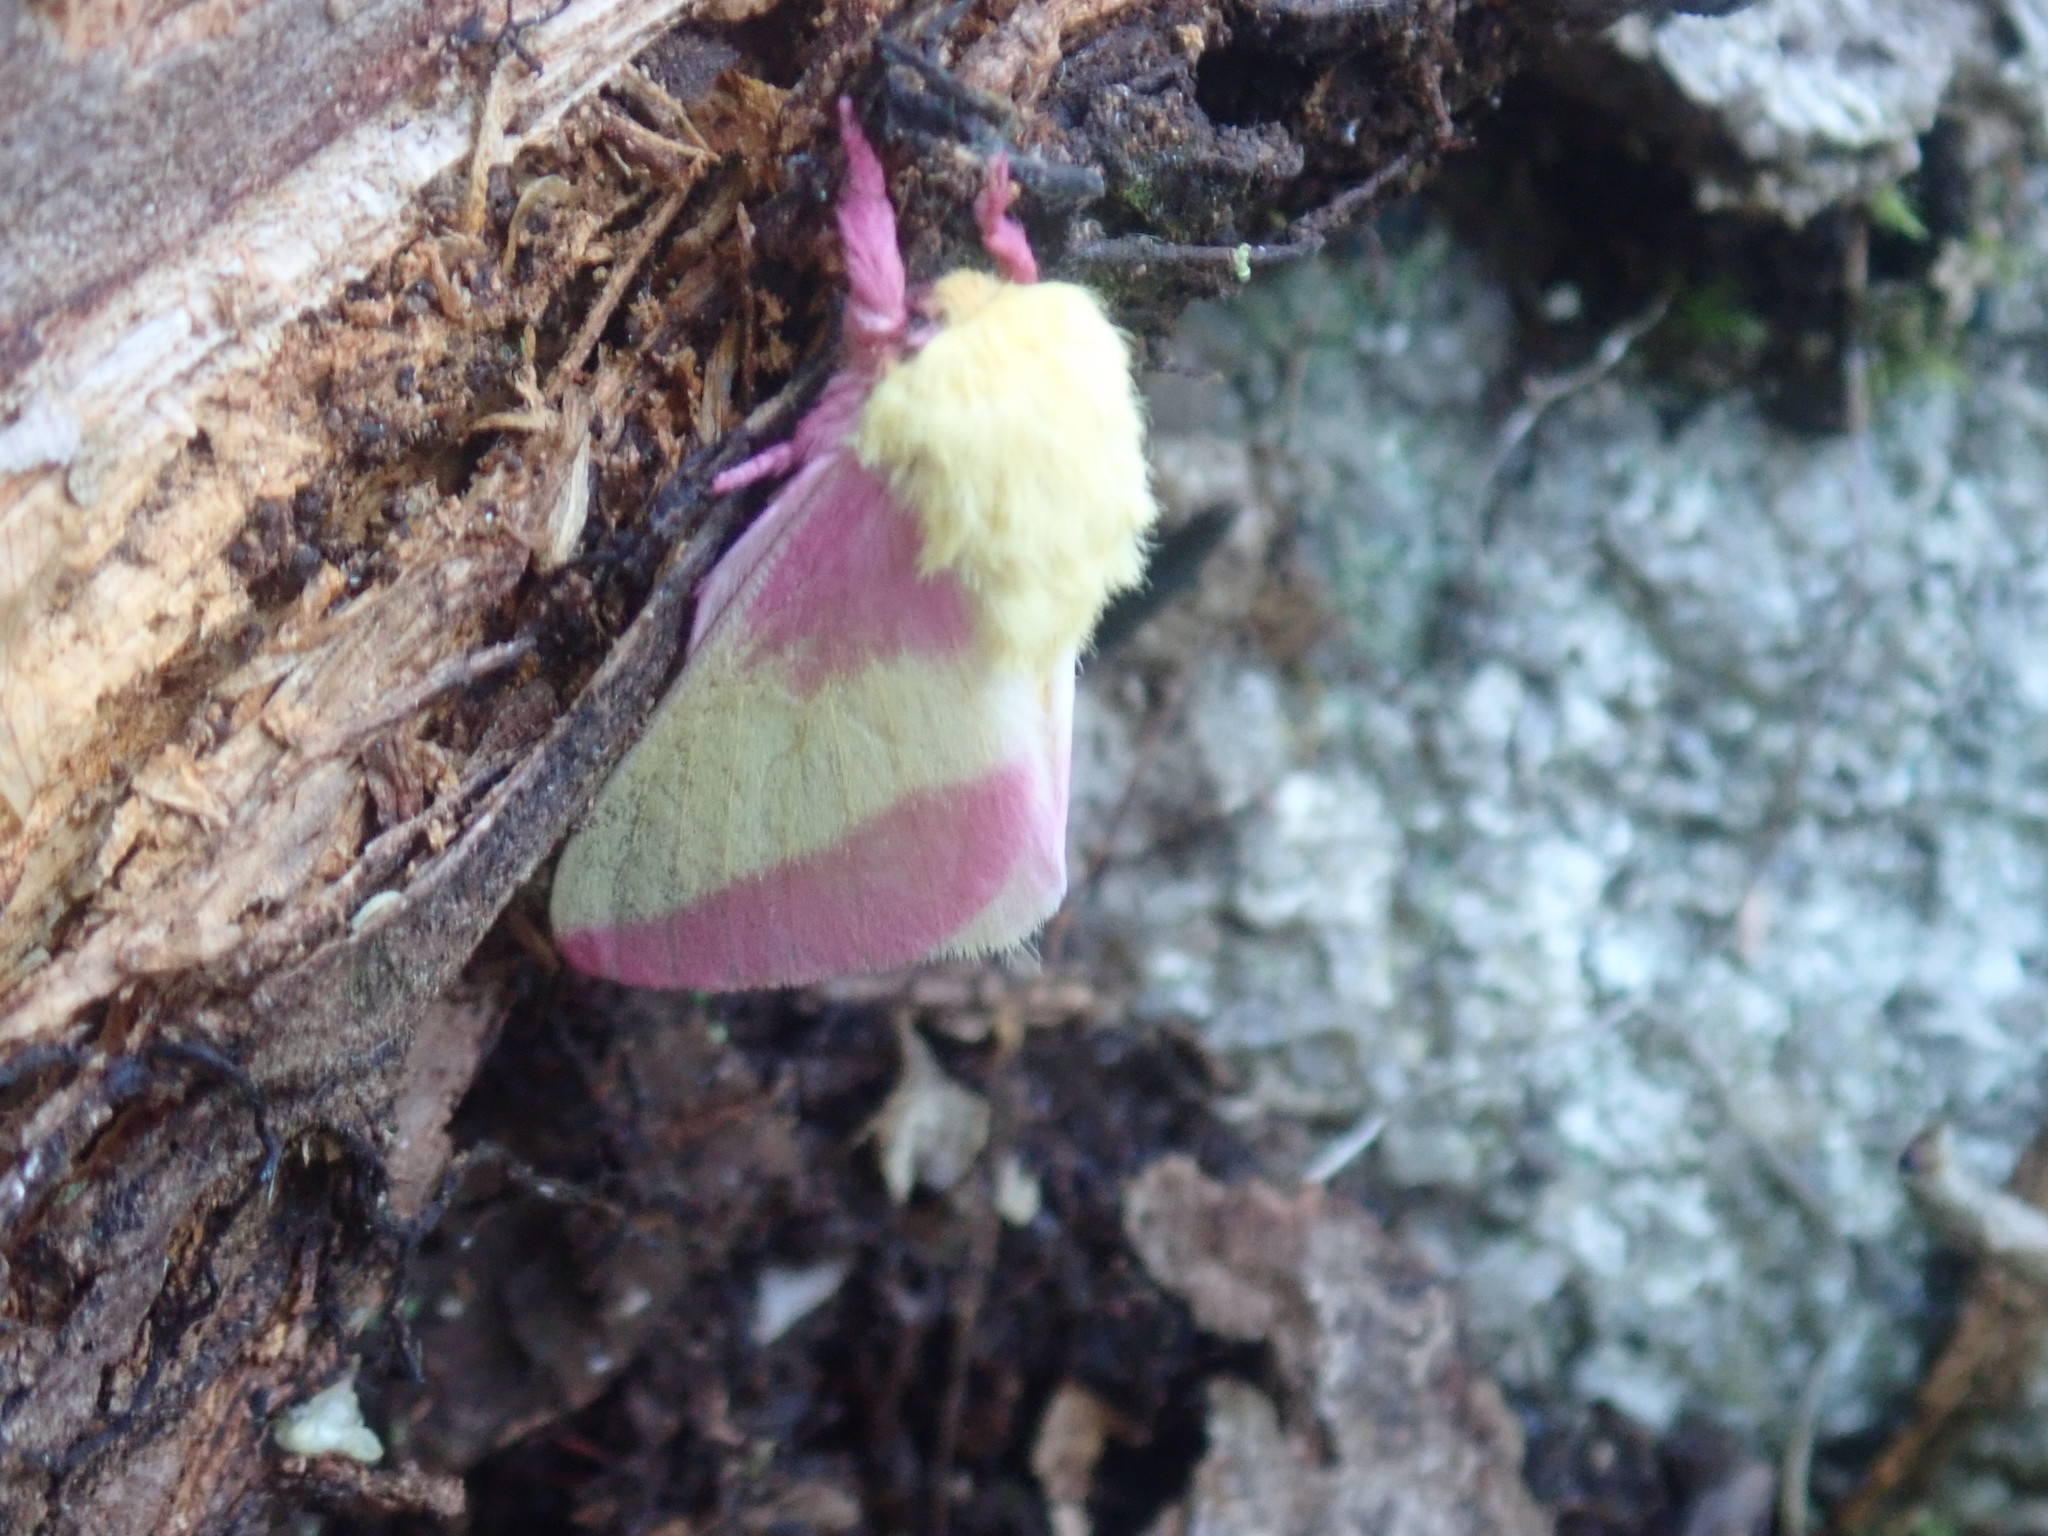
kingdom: Animalia
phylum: Arthropoda
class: Insecta
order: Lepidoptera
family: Saturniidae
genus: Dryocampa
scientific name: Dryocampa rubicunda
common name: Rosy maple moth
